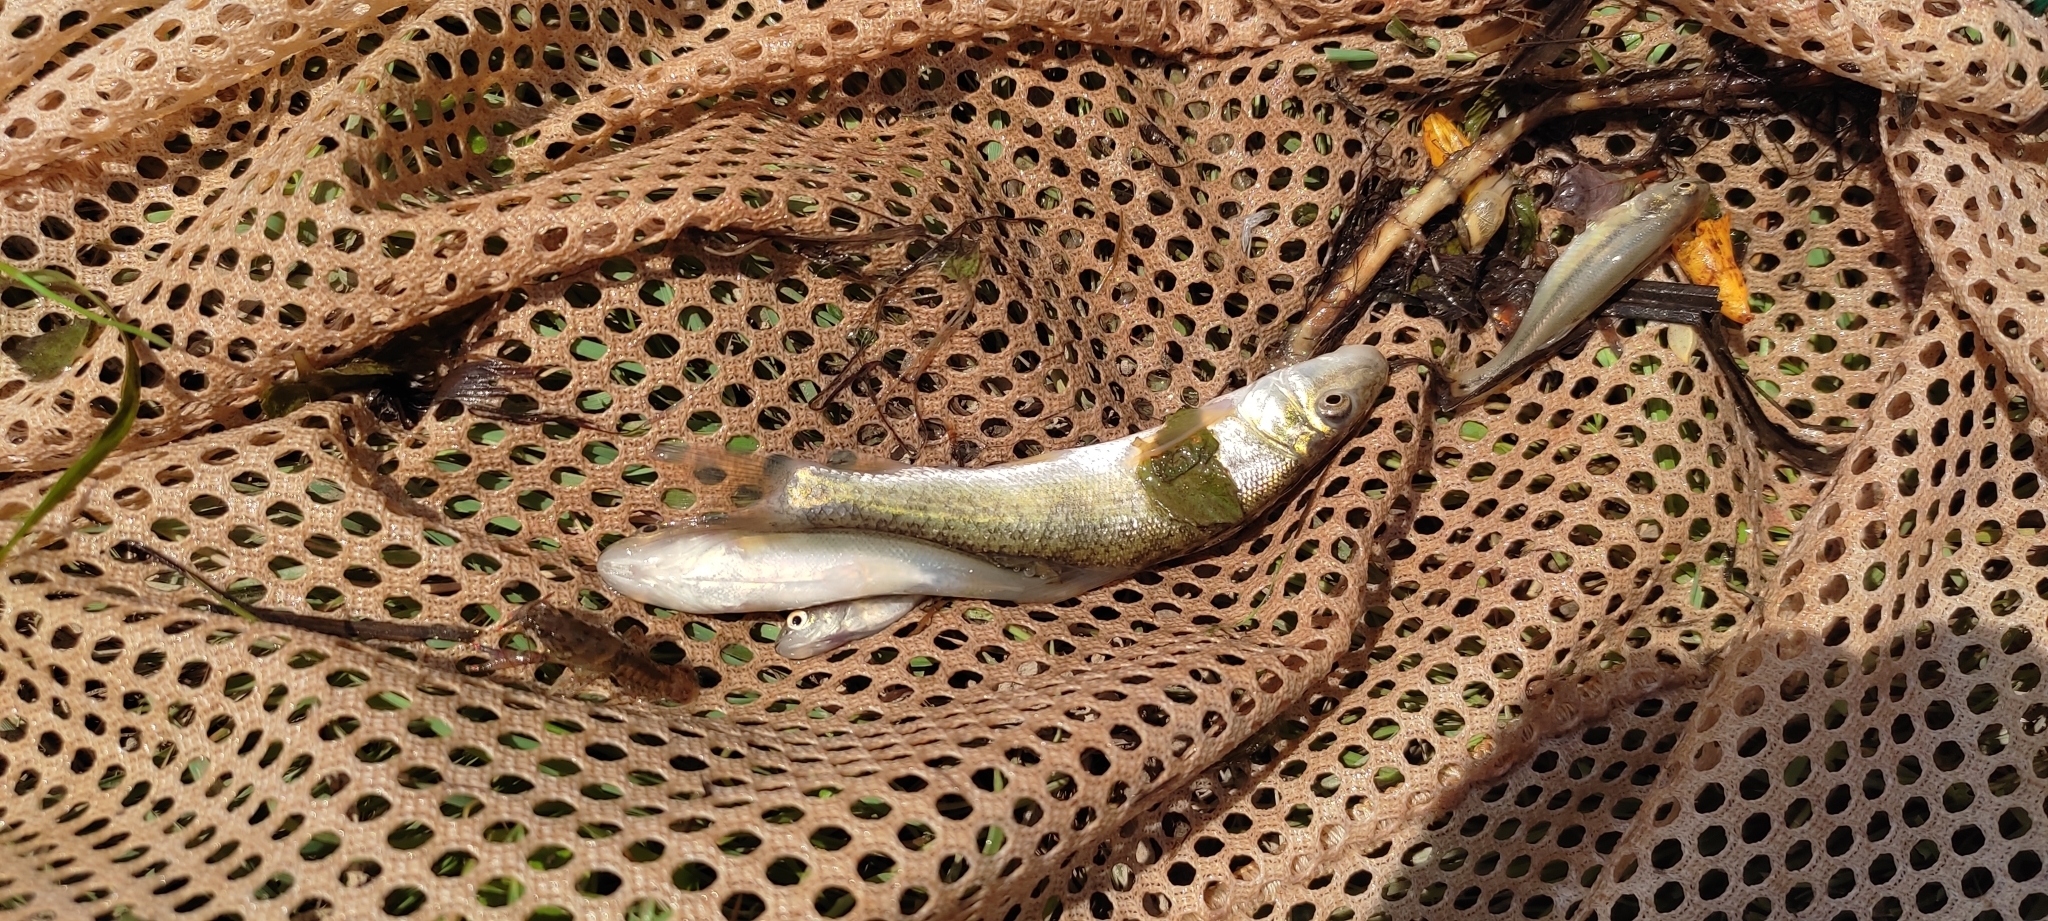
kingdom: Animalia
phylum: Chordata
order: Cypriniformes
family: Catostomidae
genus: Catostomus
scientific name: Catostomus commersonii
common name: White sucker
